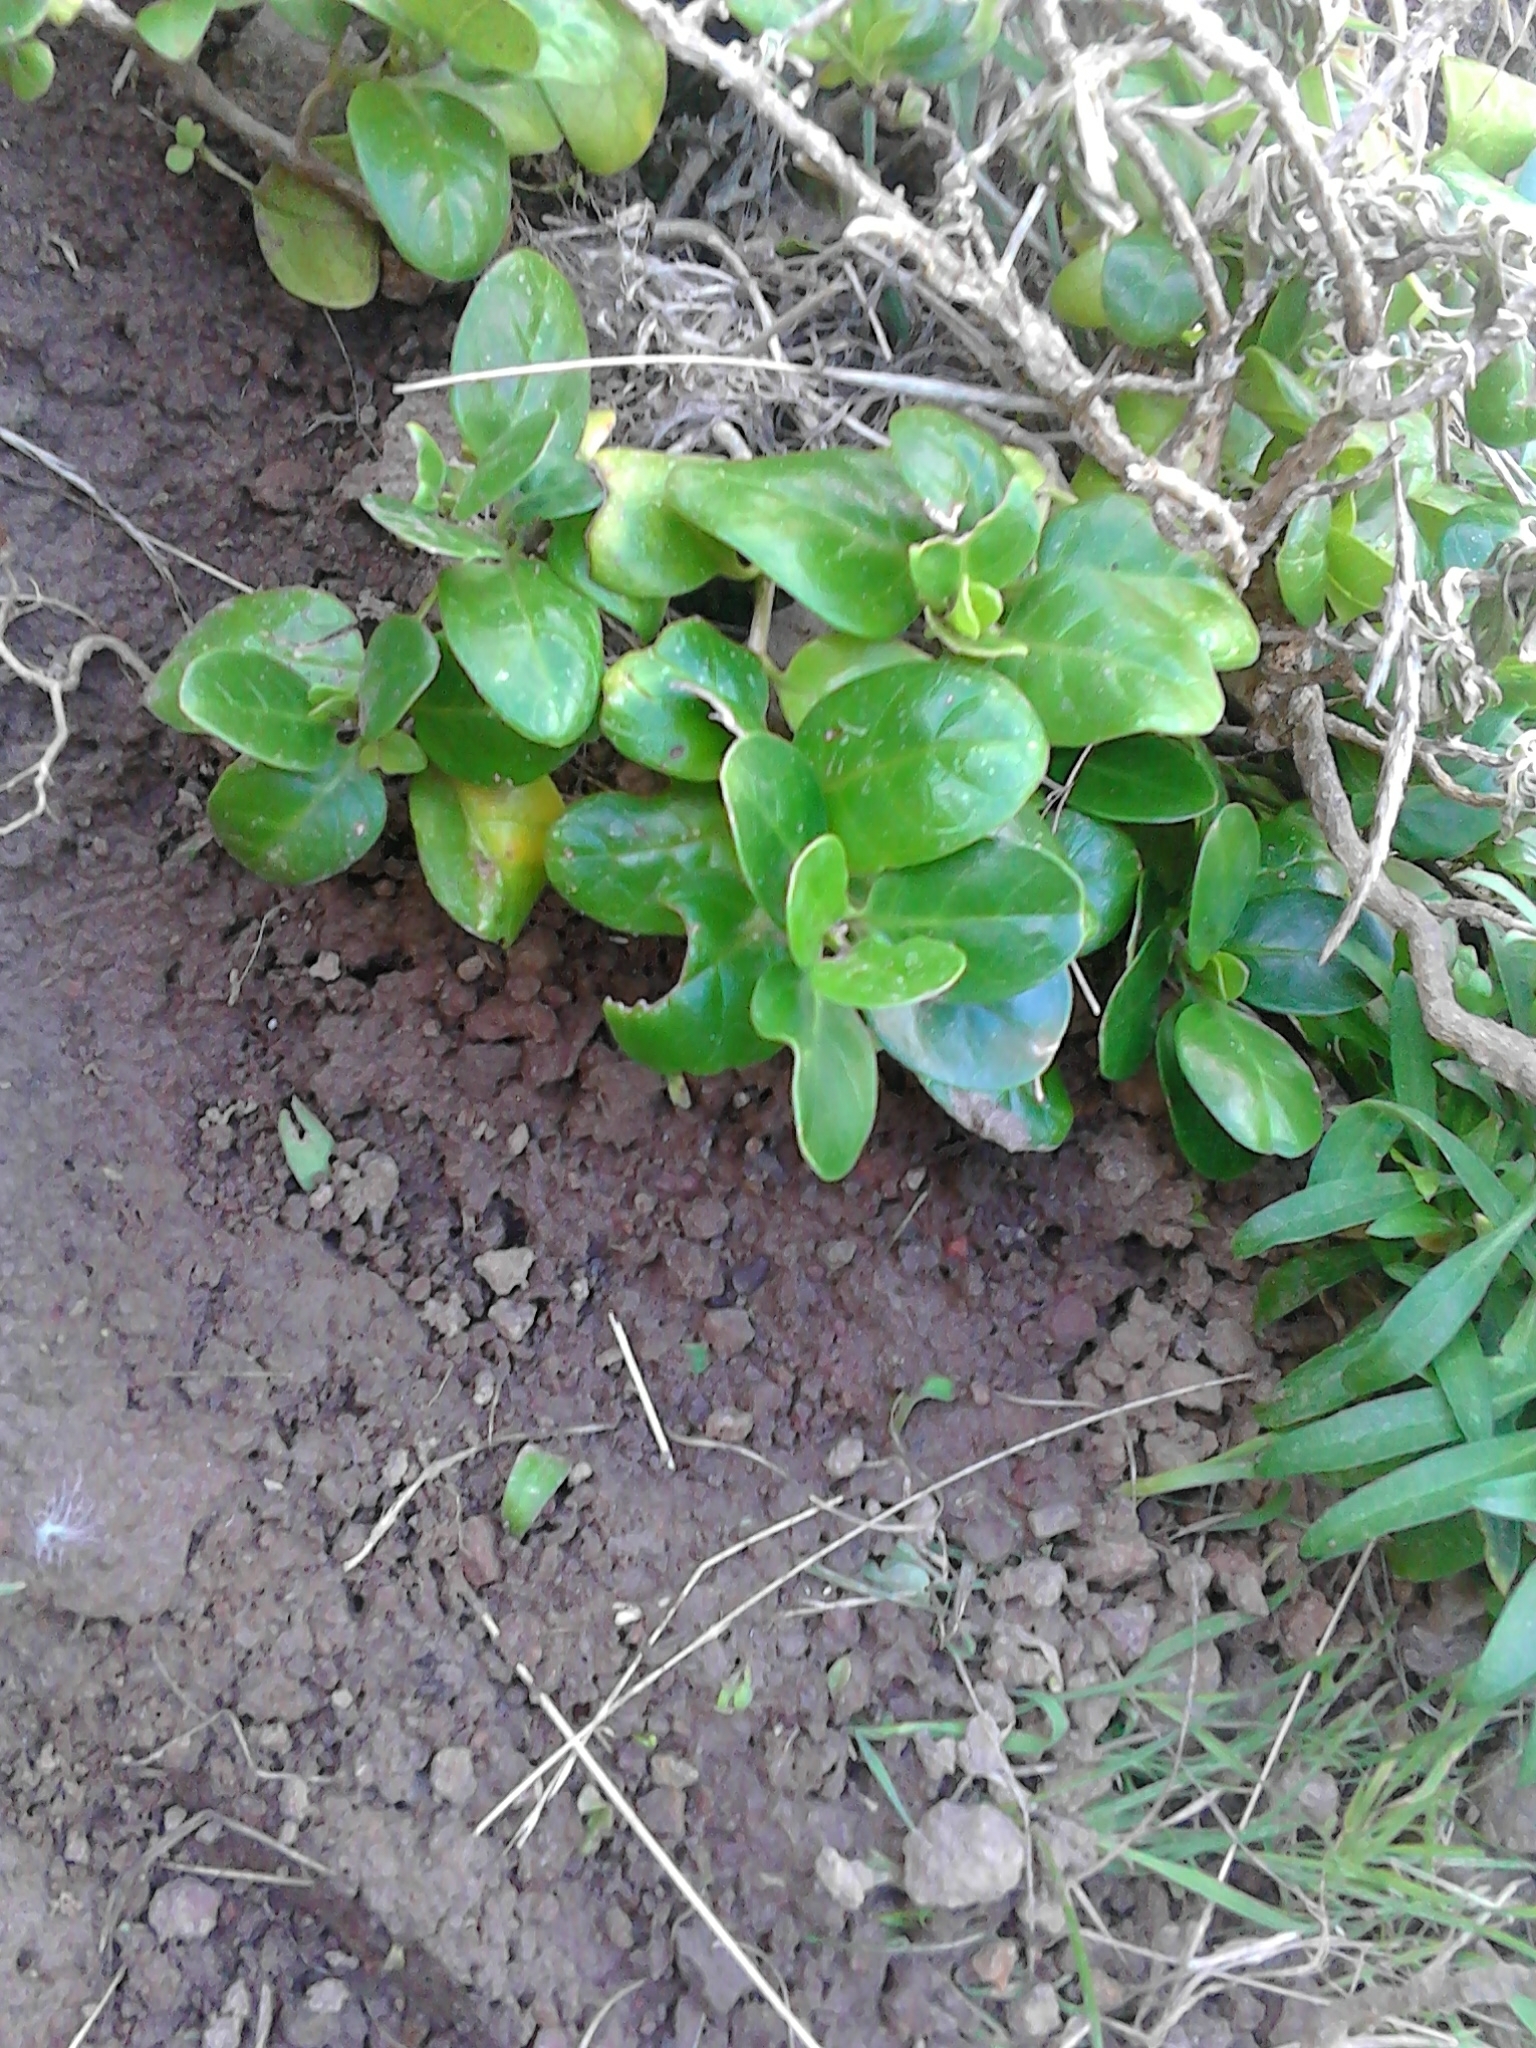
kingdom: Plantae
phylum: Tracheophyta
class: Magnoliopsida
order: Gentianales
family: Rubiaceae
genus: Coprosma
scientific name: Coprosma repens
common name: Tree bedstraw
